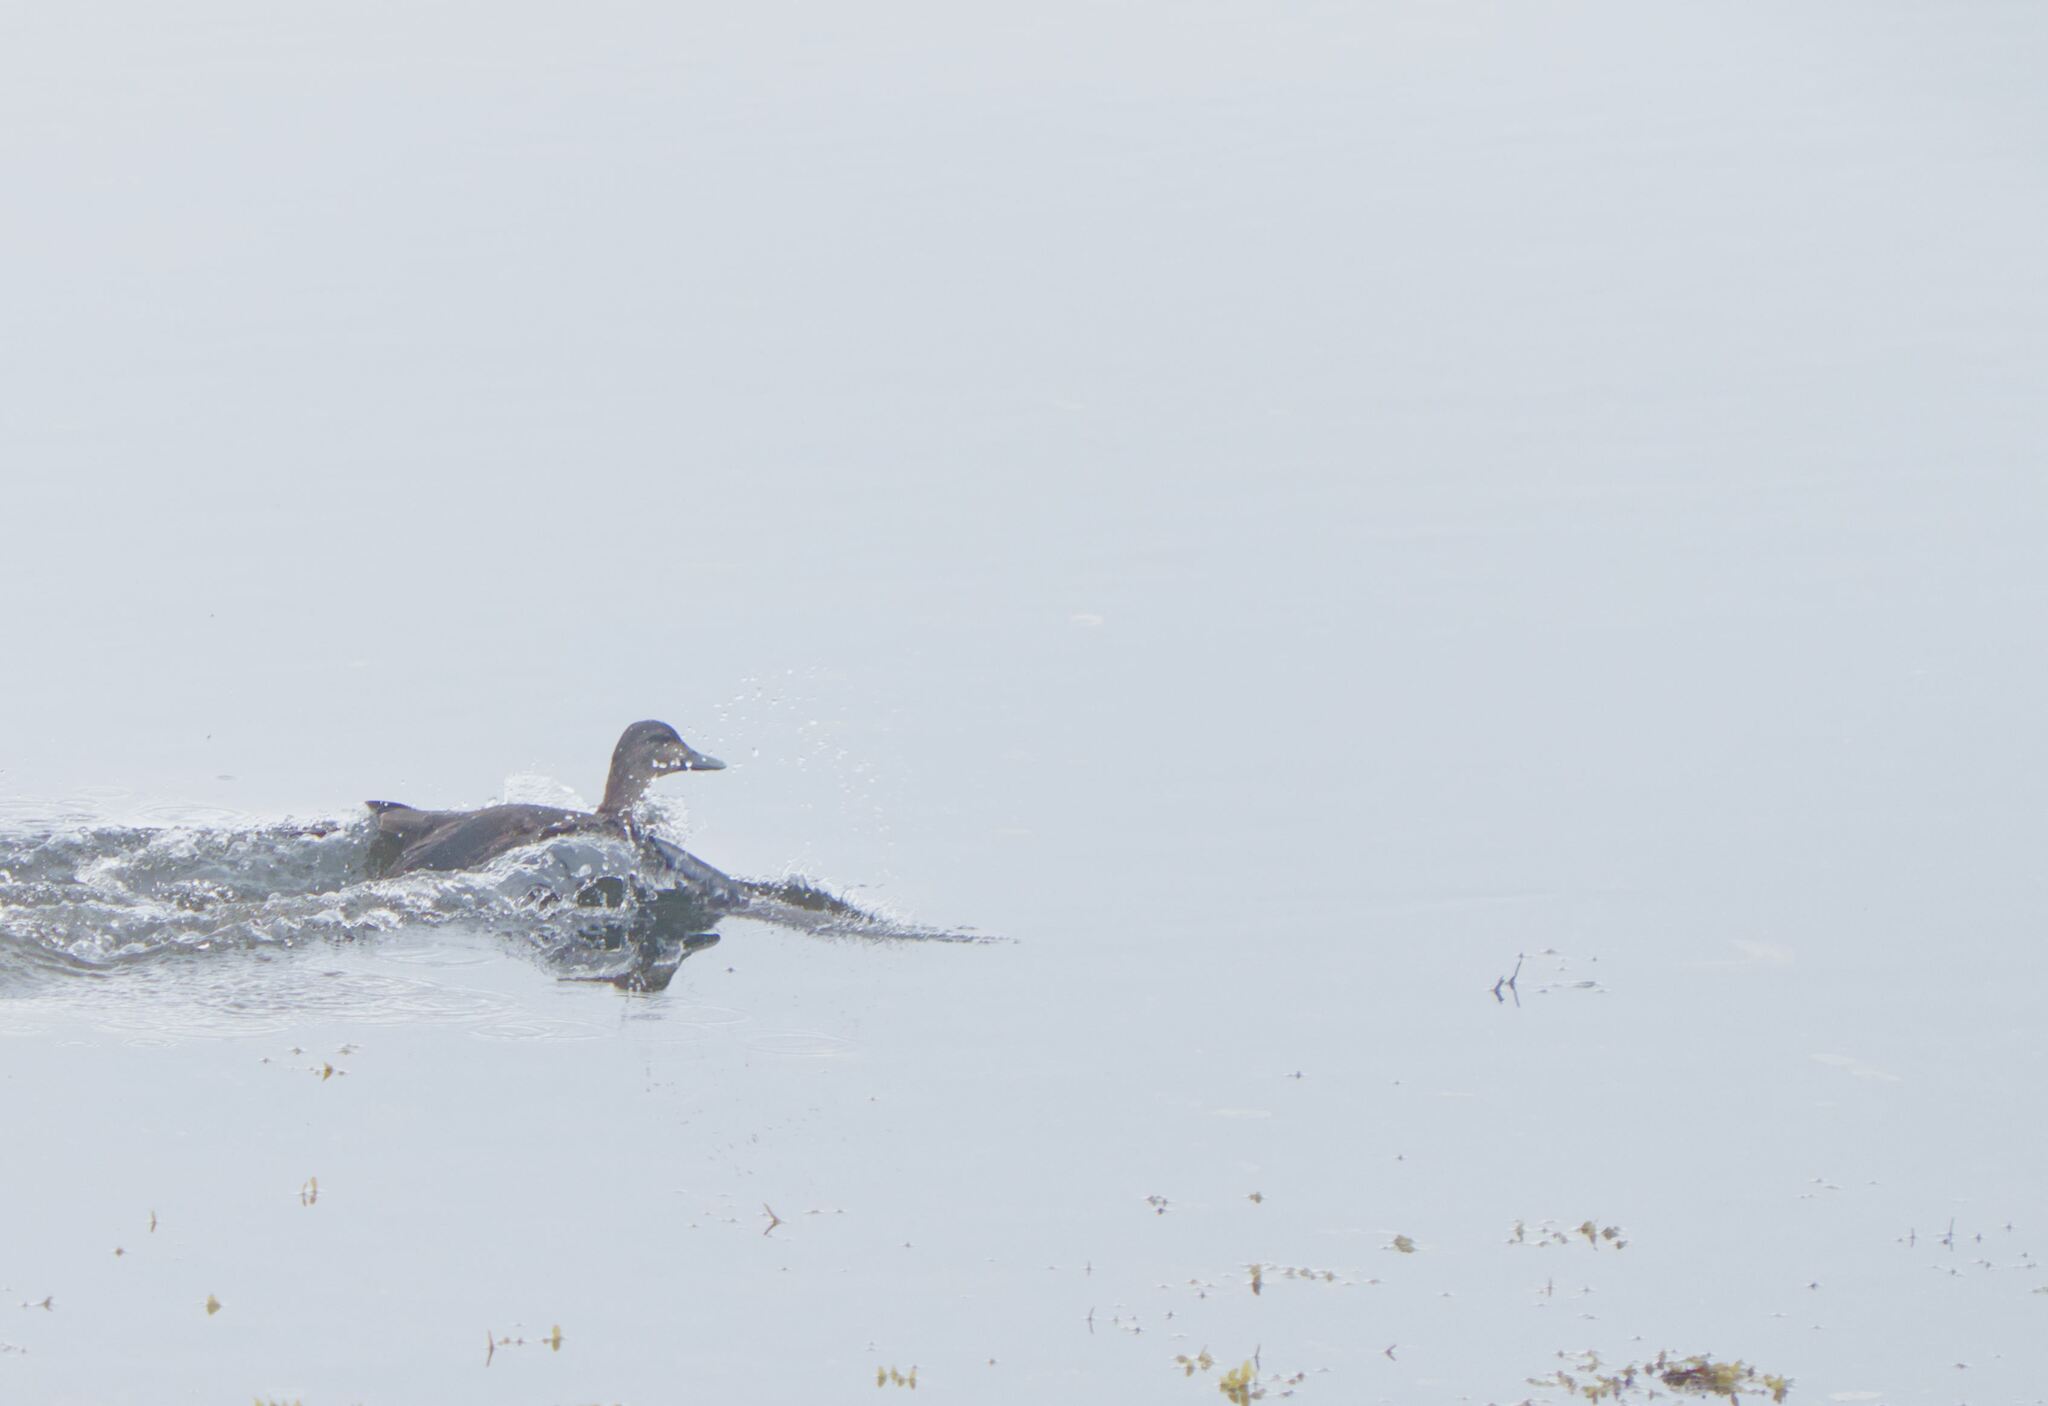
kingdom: Animalia
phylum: Chordata
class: Aves
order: Anseriformes
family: Anatidae
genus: Anas
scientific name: Anas rubripes
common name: American black duck
